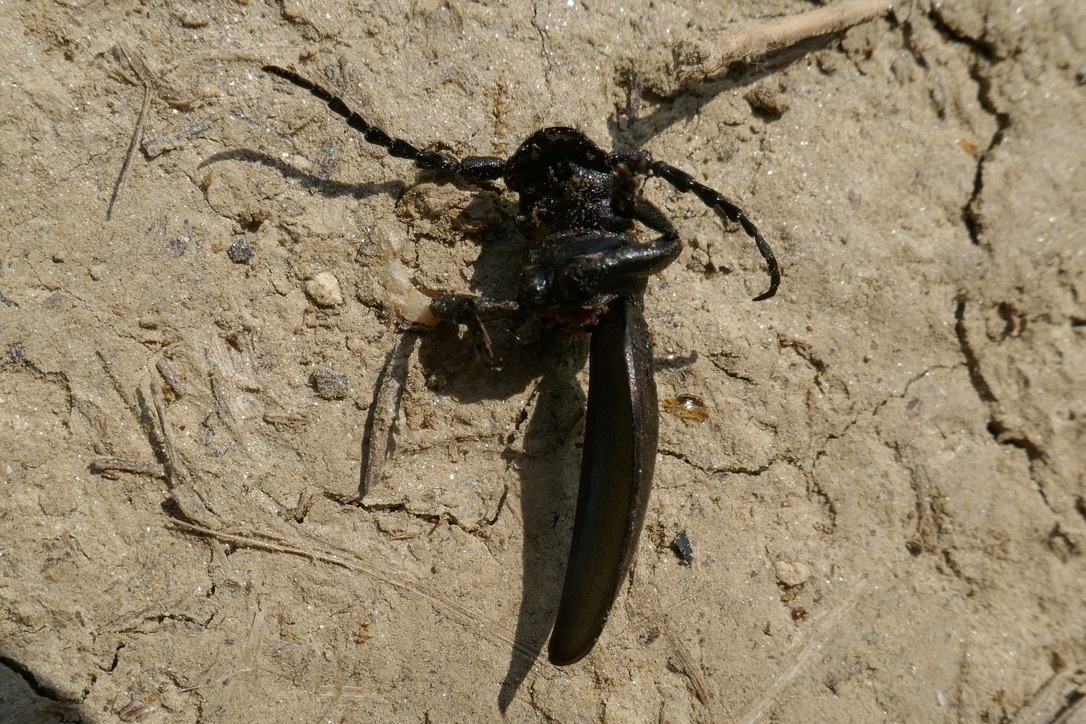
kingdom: Animalia
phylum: Arthropoda
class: Insecta
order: Coleoptera
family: Cerambycidae
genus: Dorcadion
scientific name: Dorcadion aethiops
